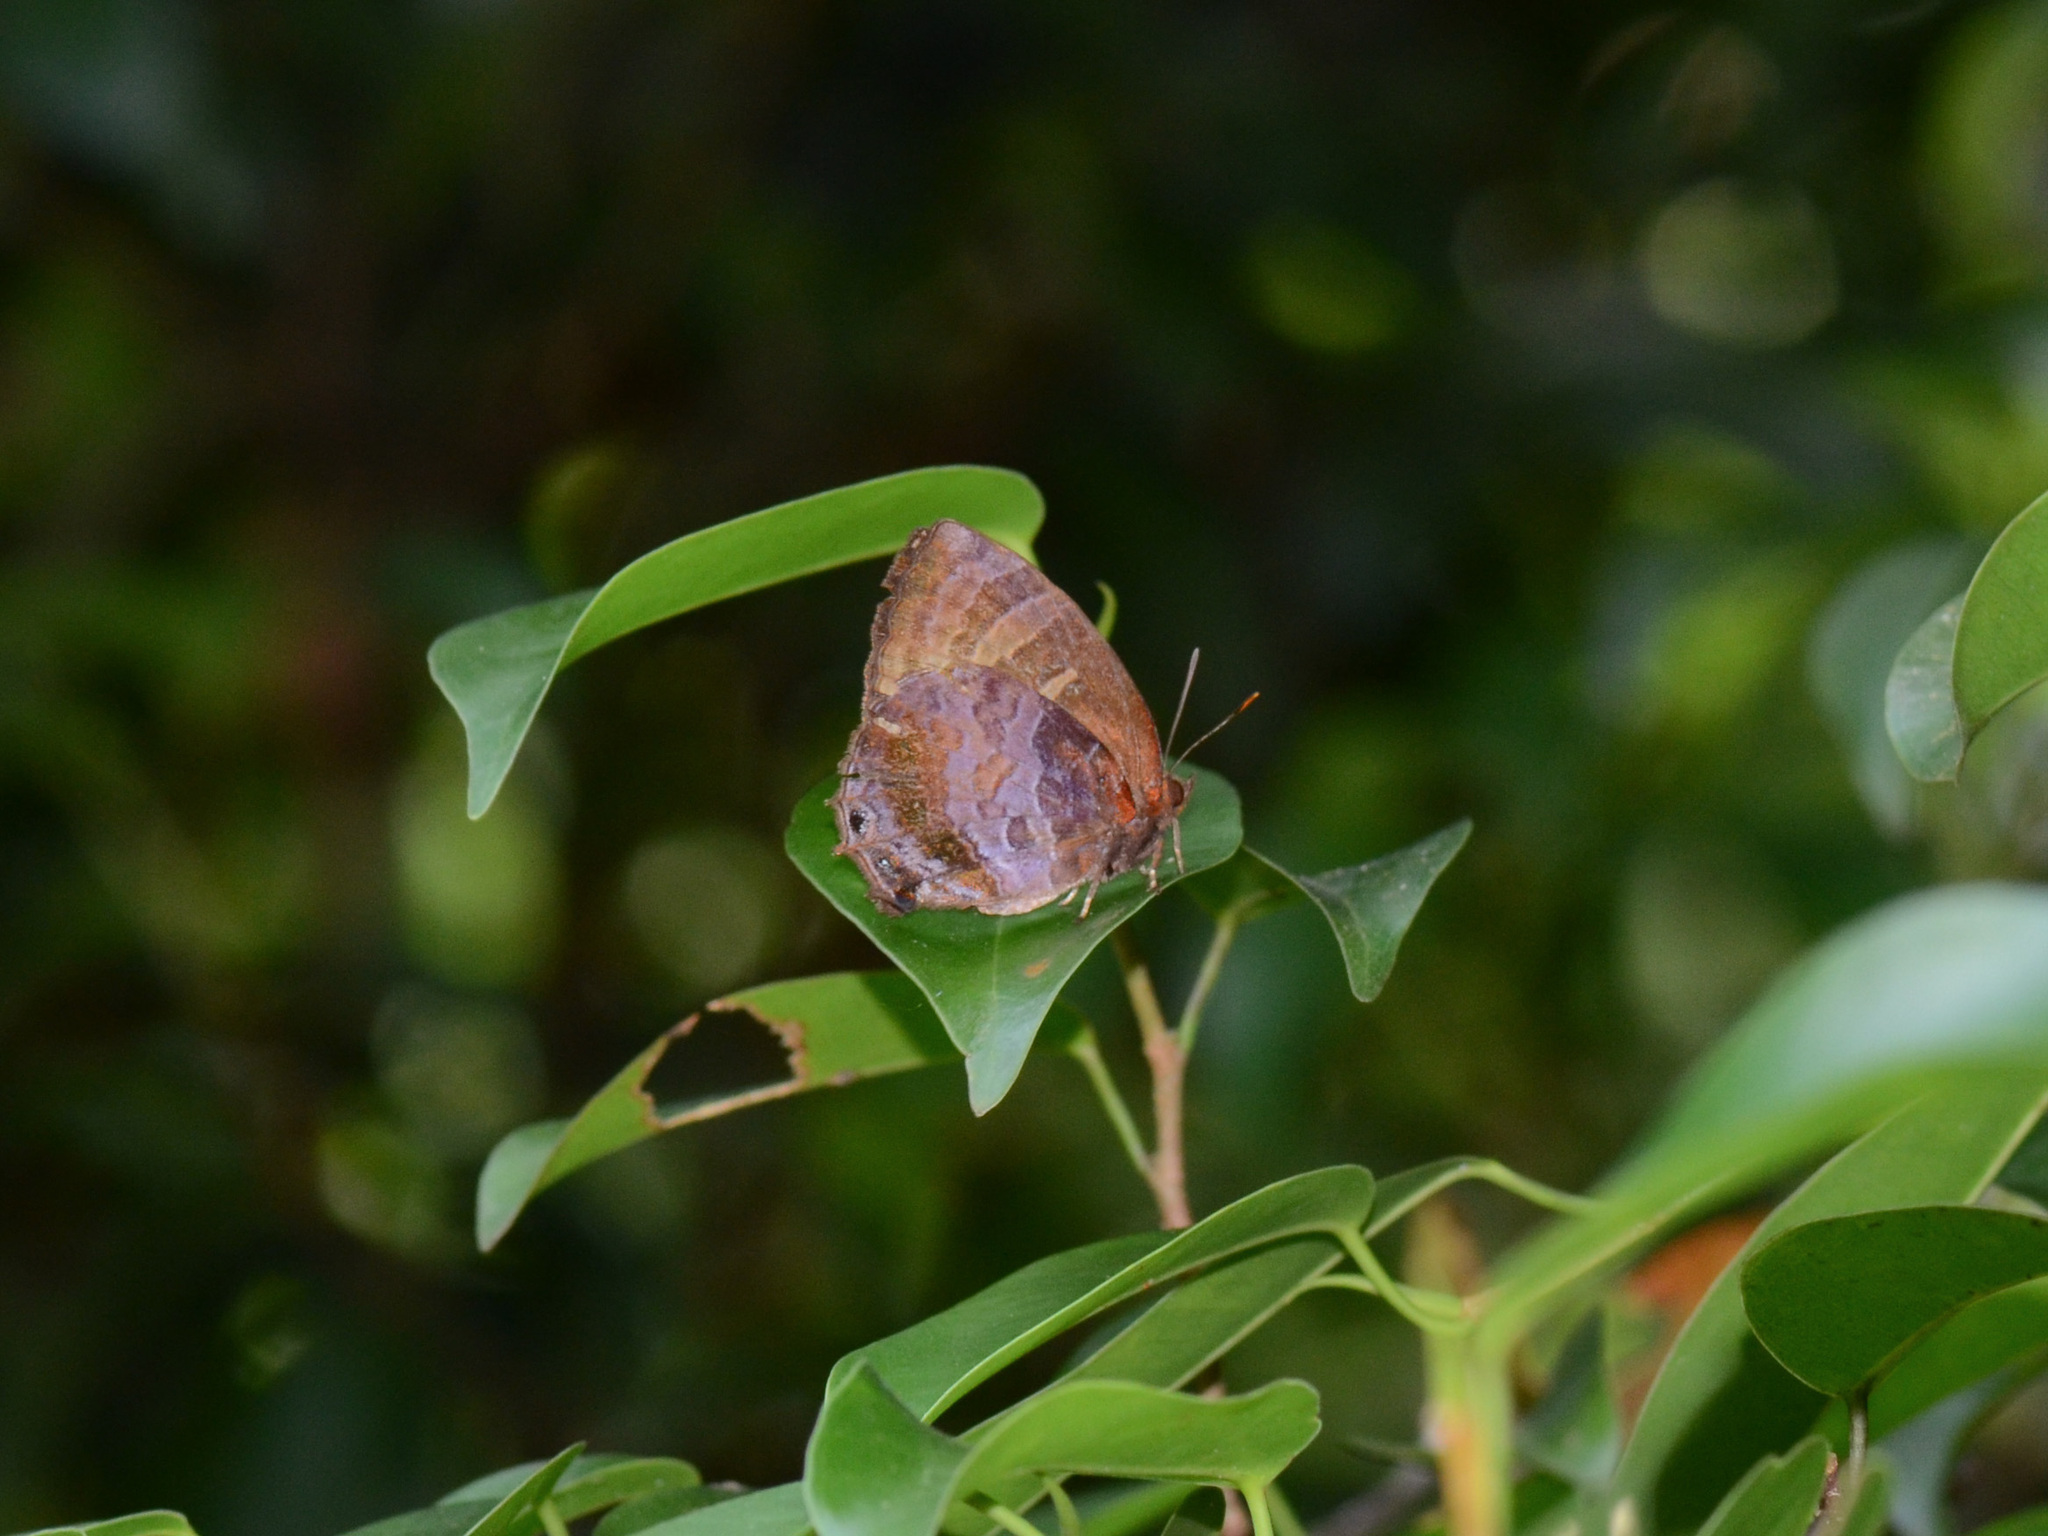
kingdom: Animalia
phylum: Arthropoda
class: Insecta
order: Lepidoptera
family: Lycaenidae
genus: Flos
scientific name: Flos apidanus
